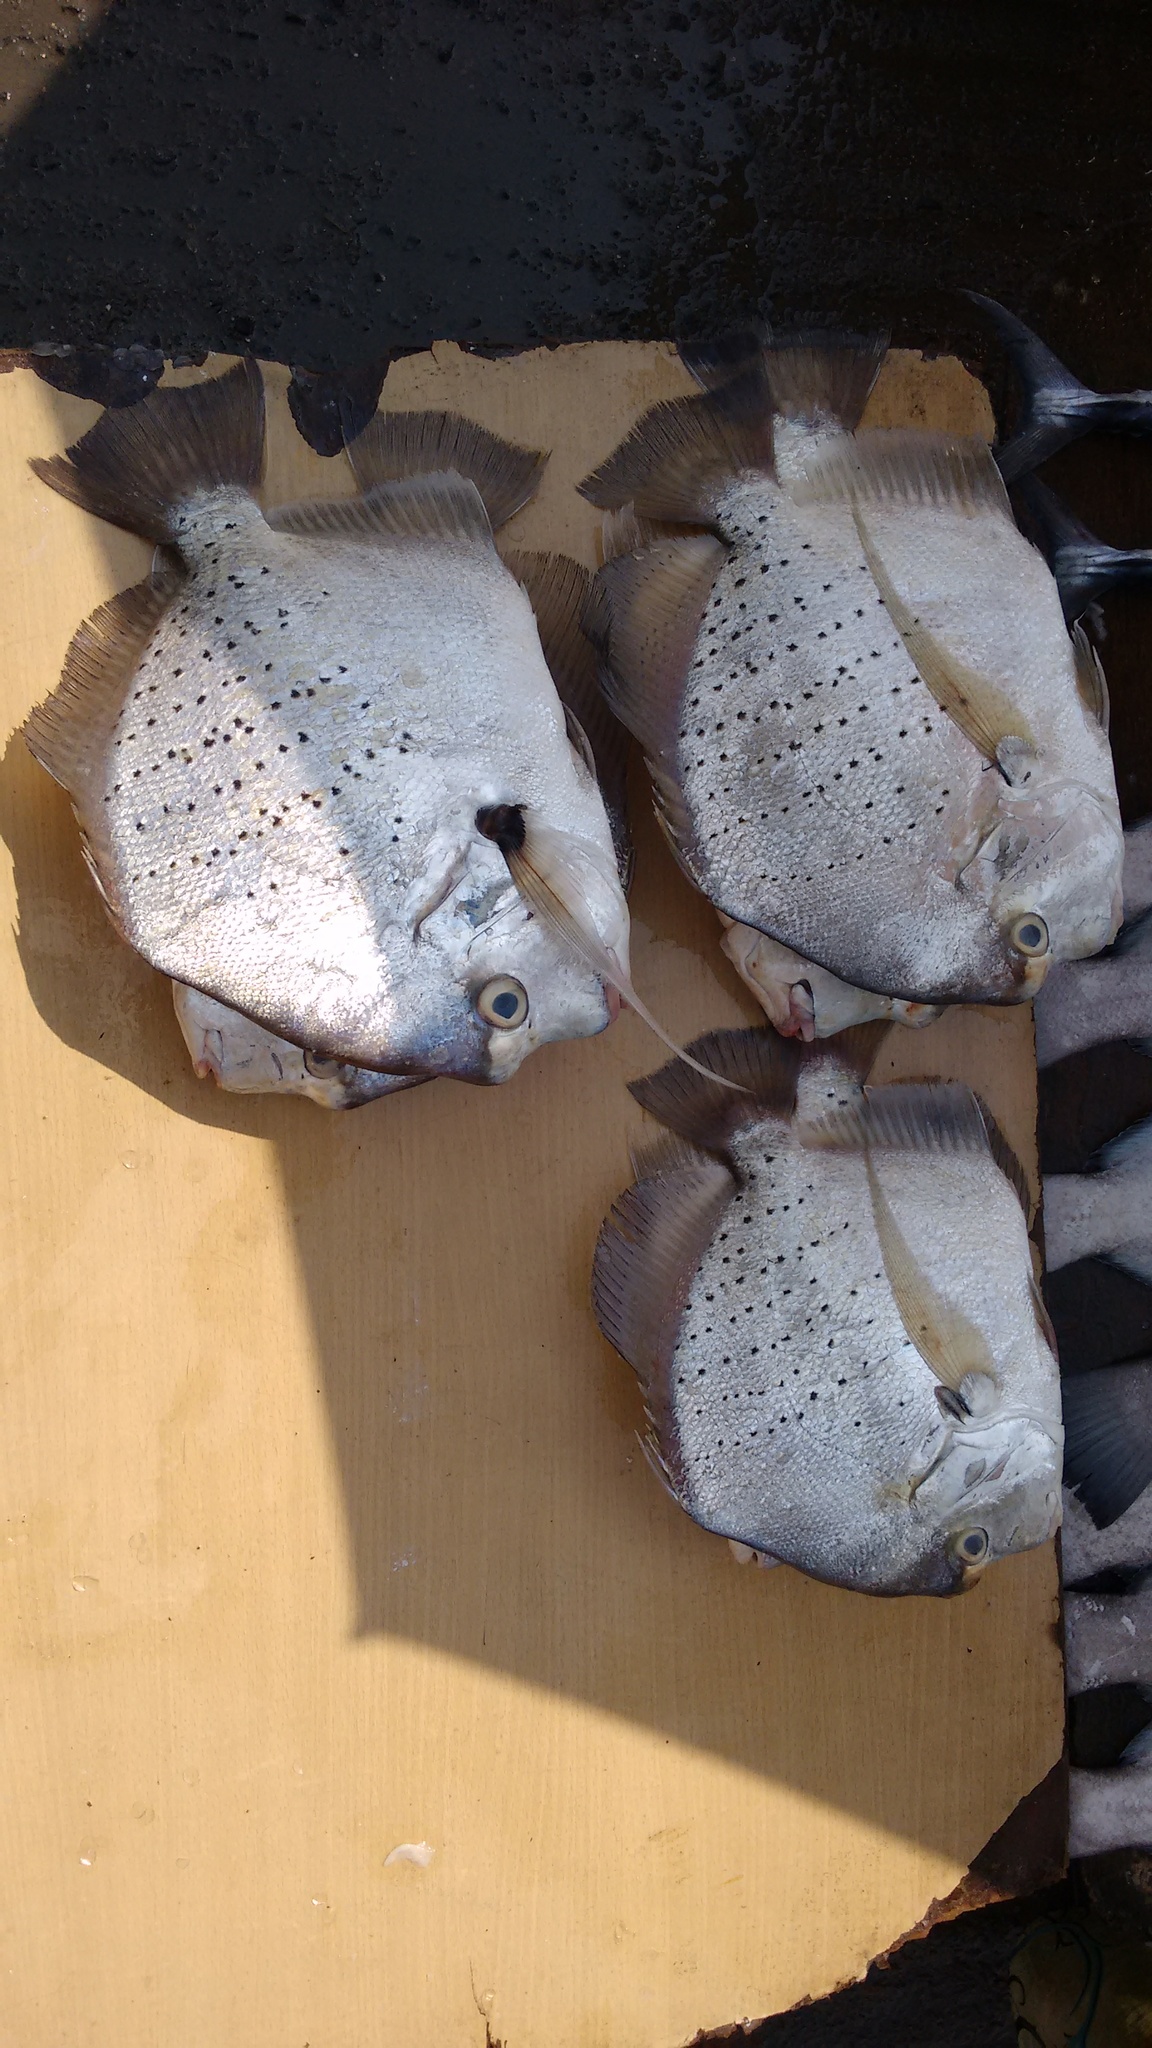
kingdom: Animalia
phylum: Chordata
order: Perciformes
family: Drepaneidae
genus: Drepane
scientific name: Drepane punctata
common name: Spotted sicklefish
